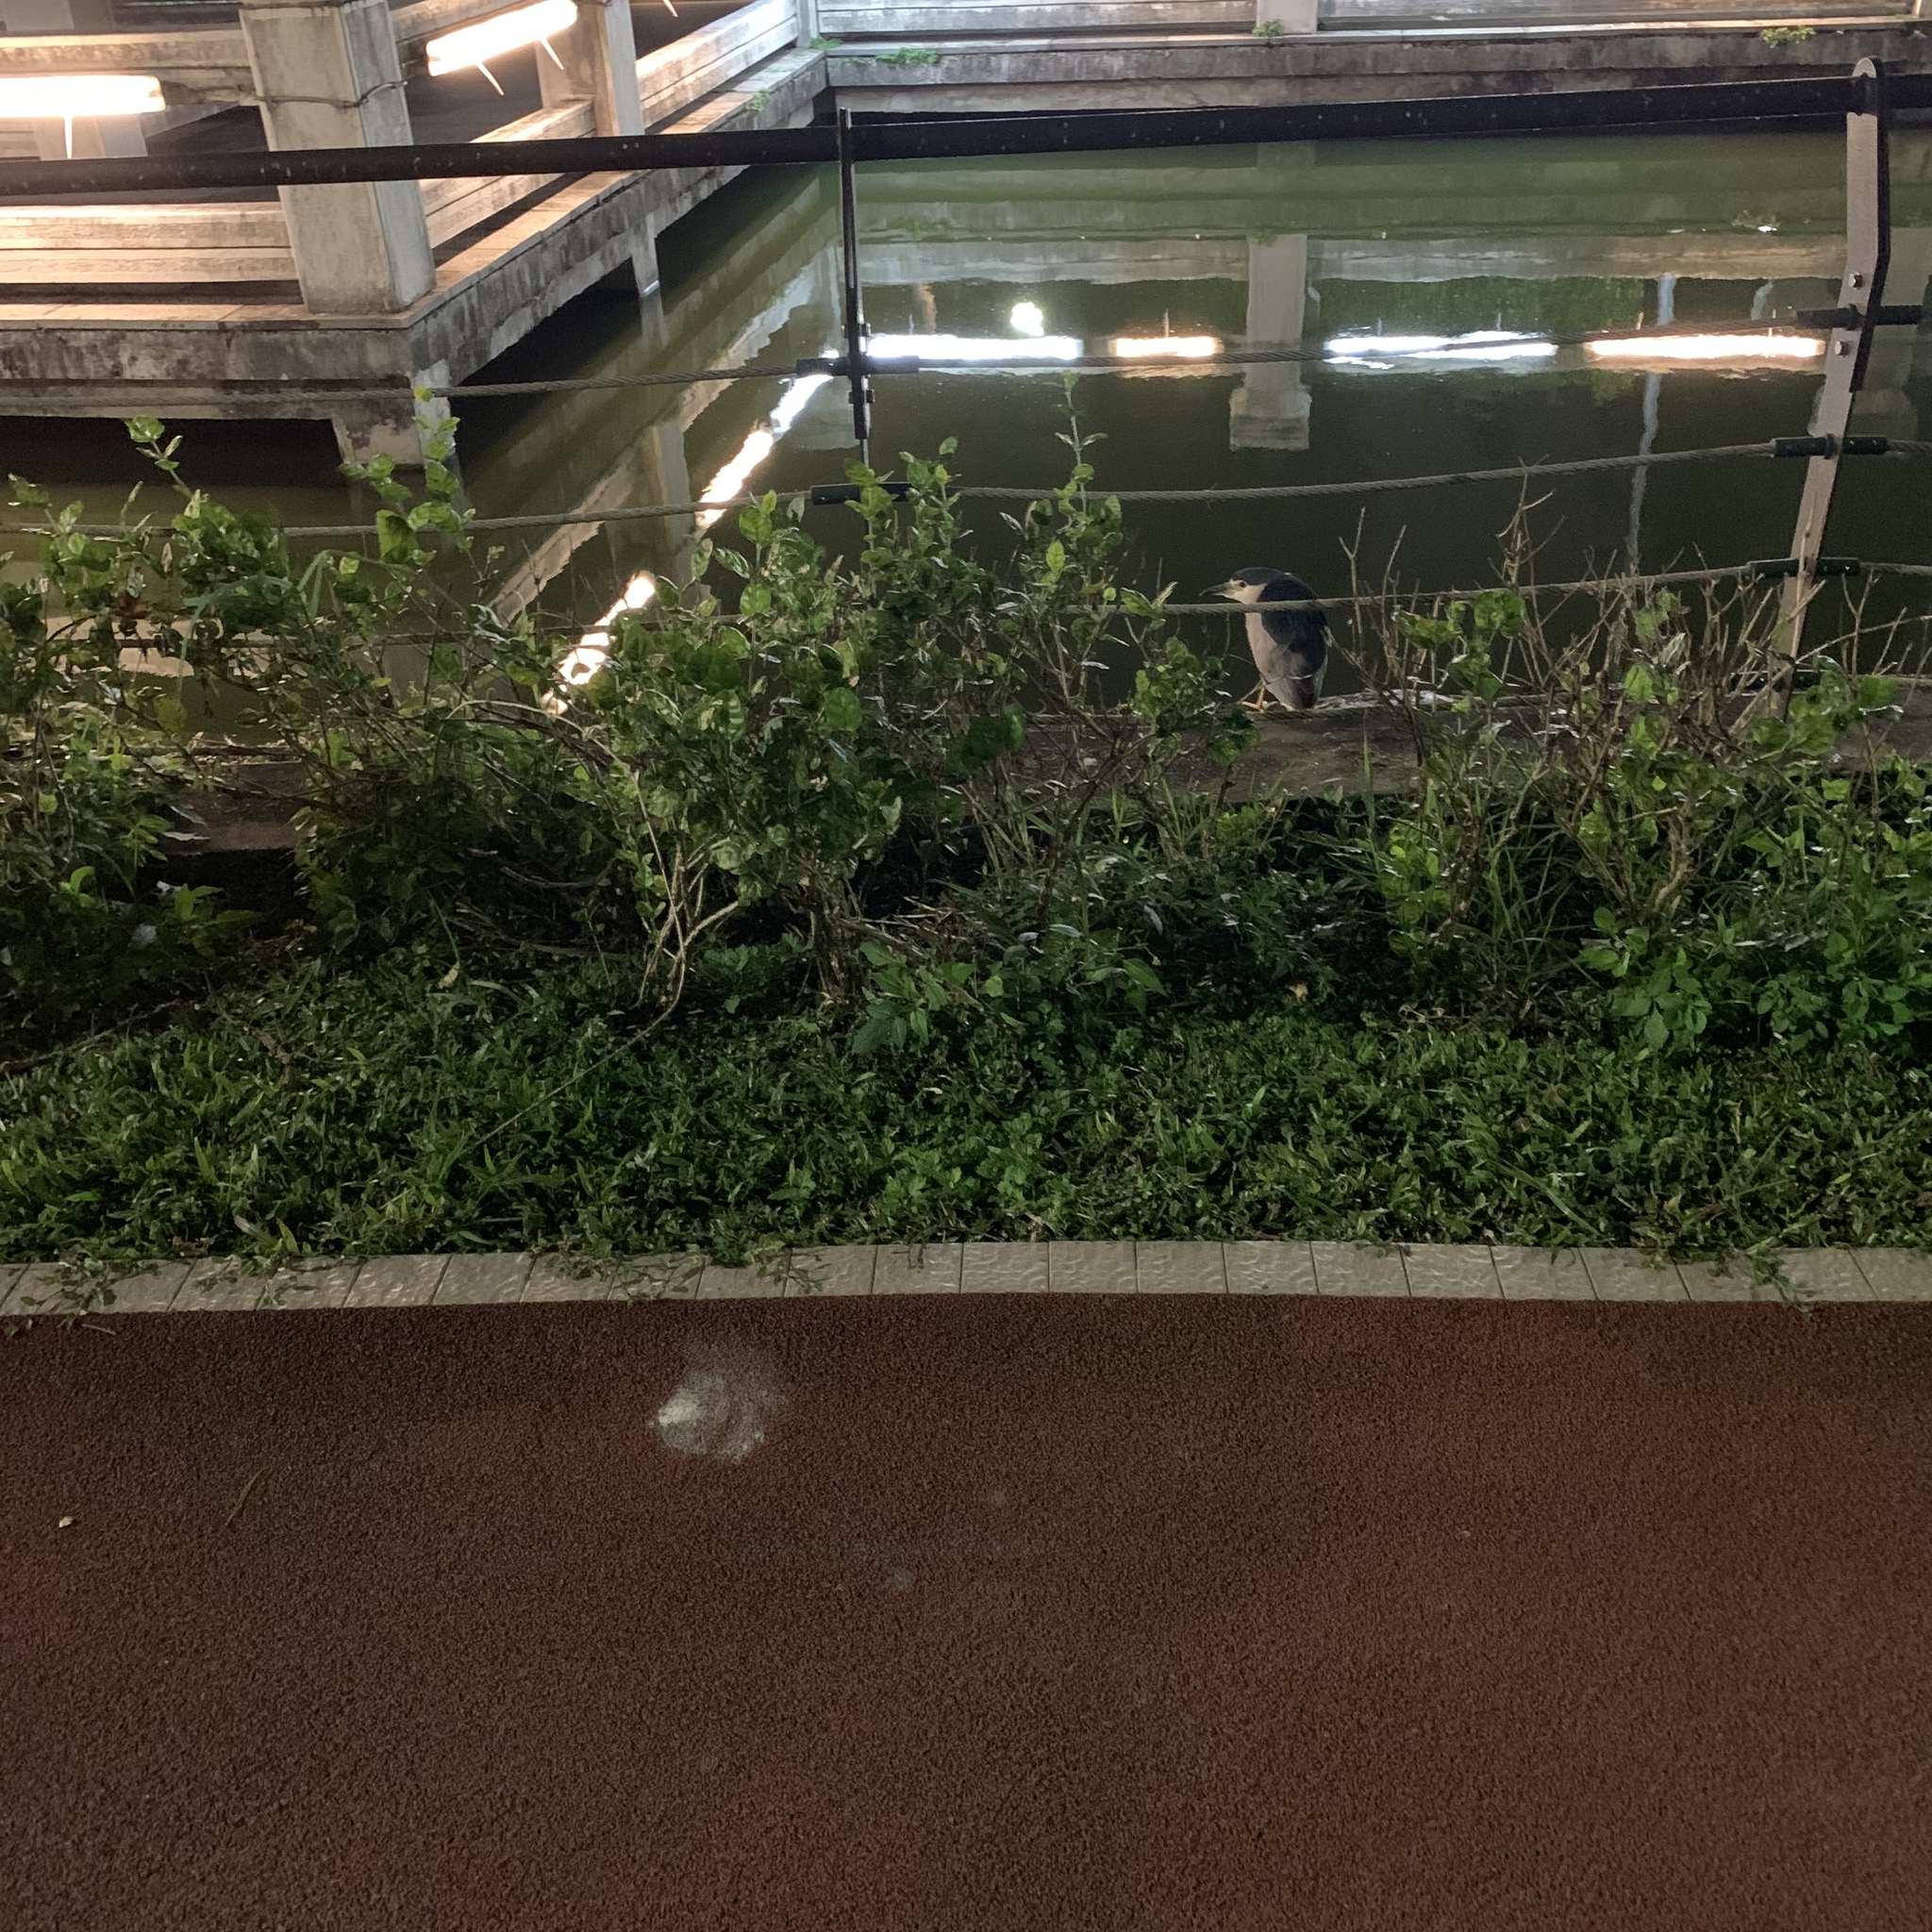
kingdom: Animalia
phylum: Chordata
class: Aves
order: Pelecaniformes
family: Ardeidae
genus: Nycticorax
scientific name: Nycticorax nycticorax
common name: Black-crowned night heron
